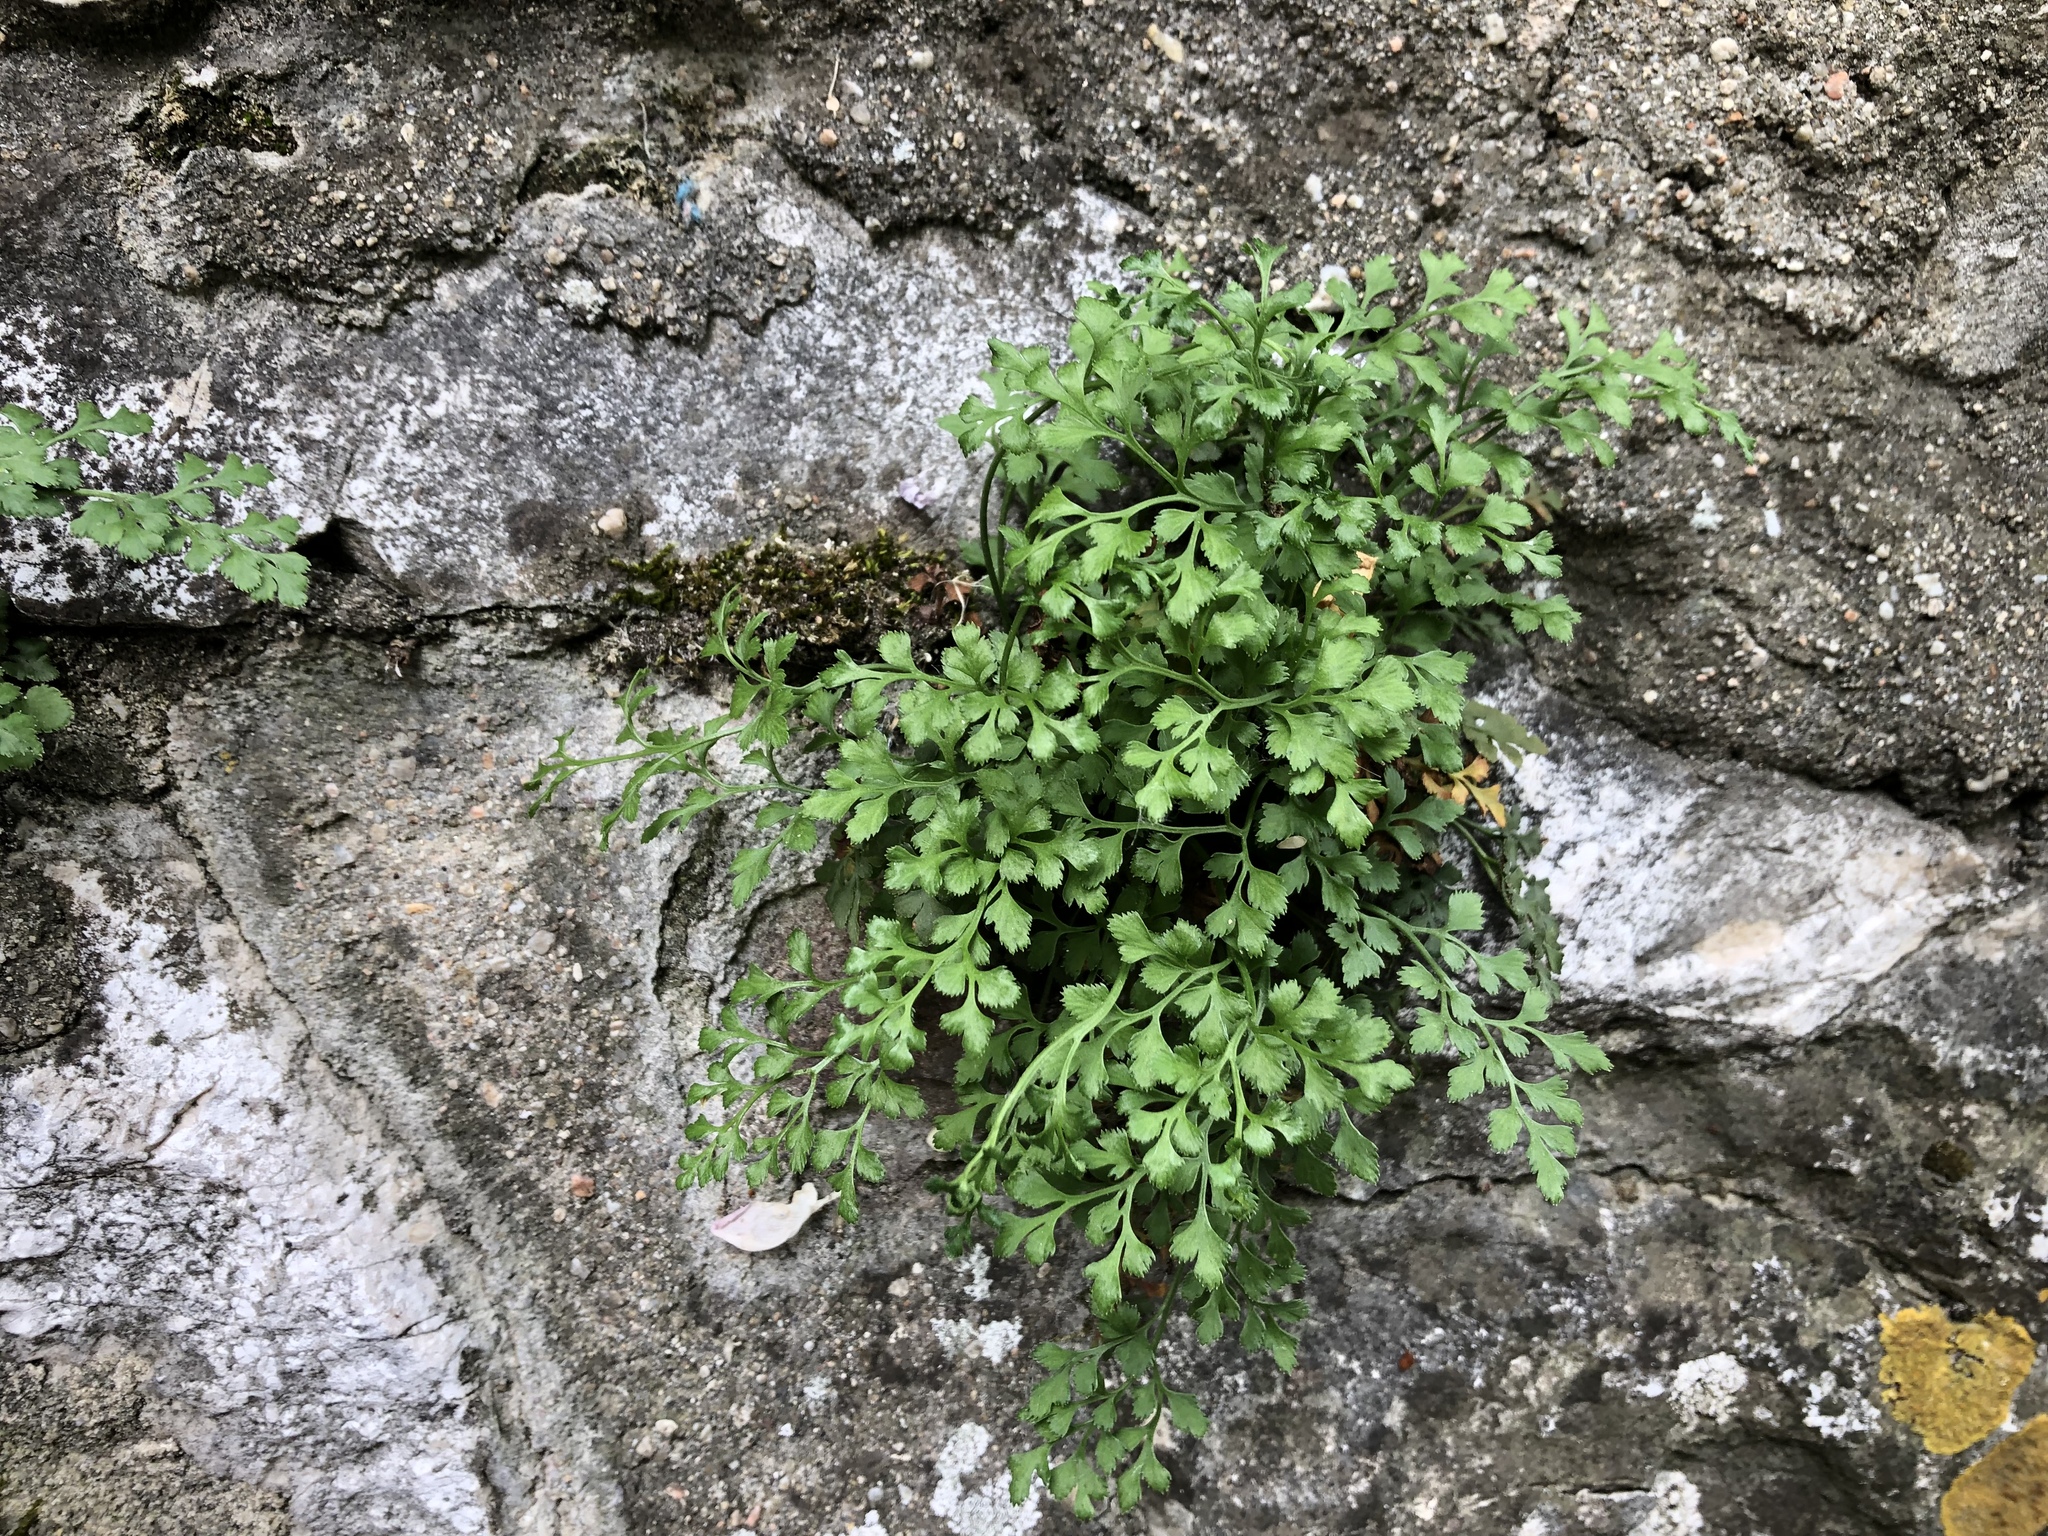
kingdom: Plantae
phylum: Tracheophyta
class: Polypodiopsida
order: Polypodiales
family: Aspleniaceae
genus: Asplenium
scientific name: Asplenium ruta-muraria
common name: Wall-rue
